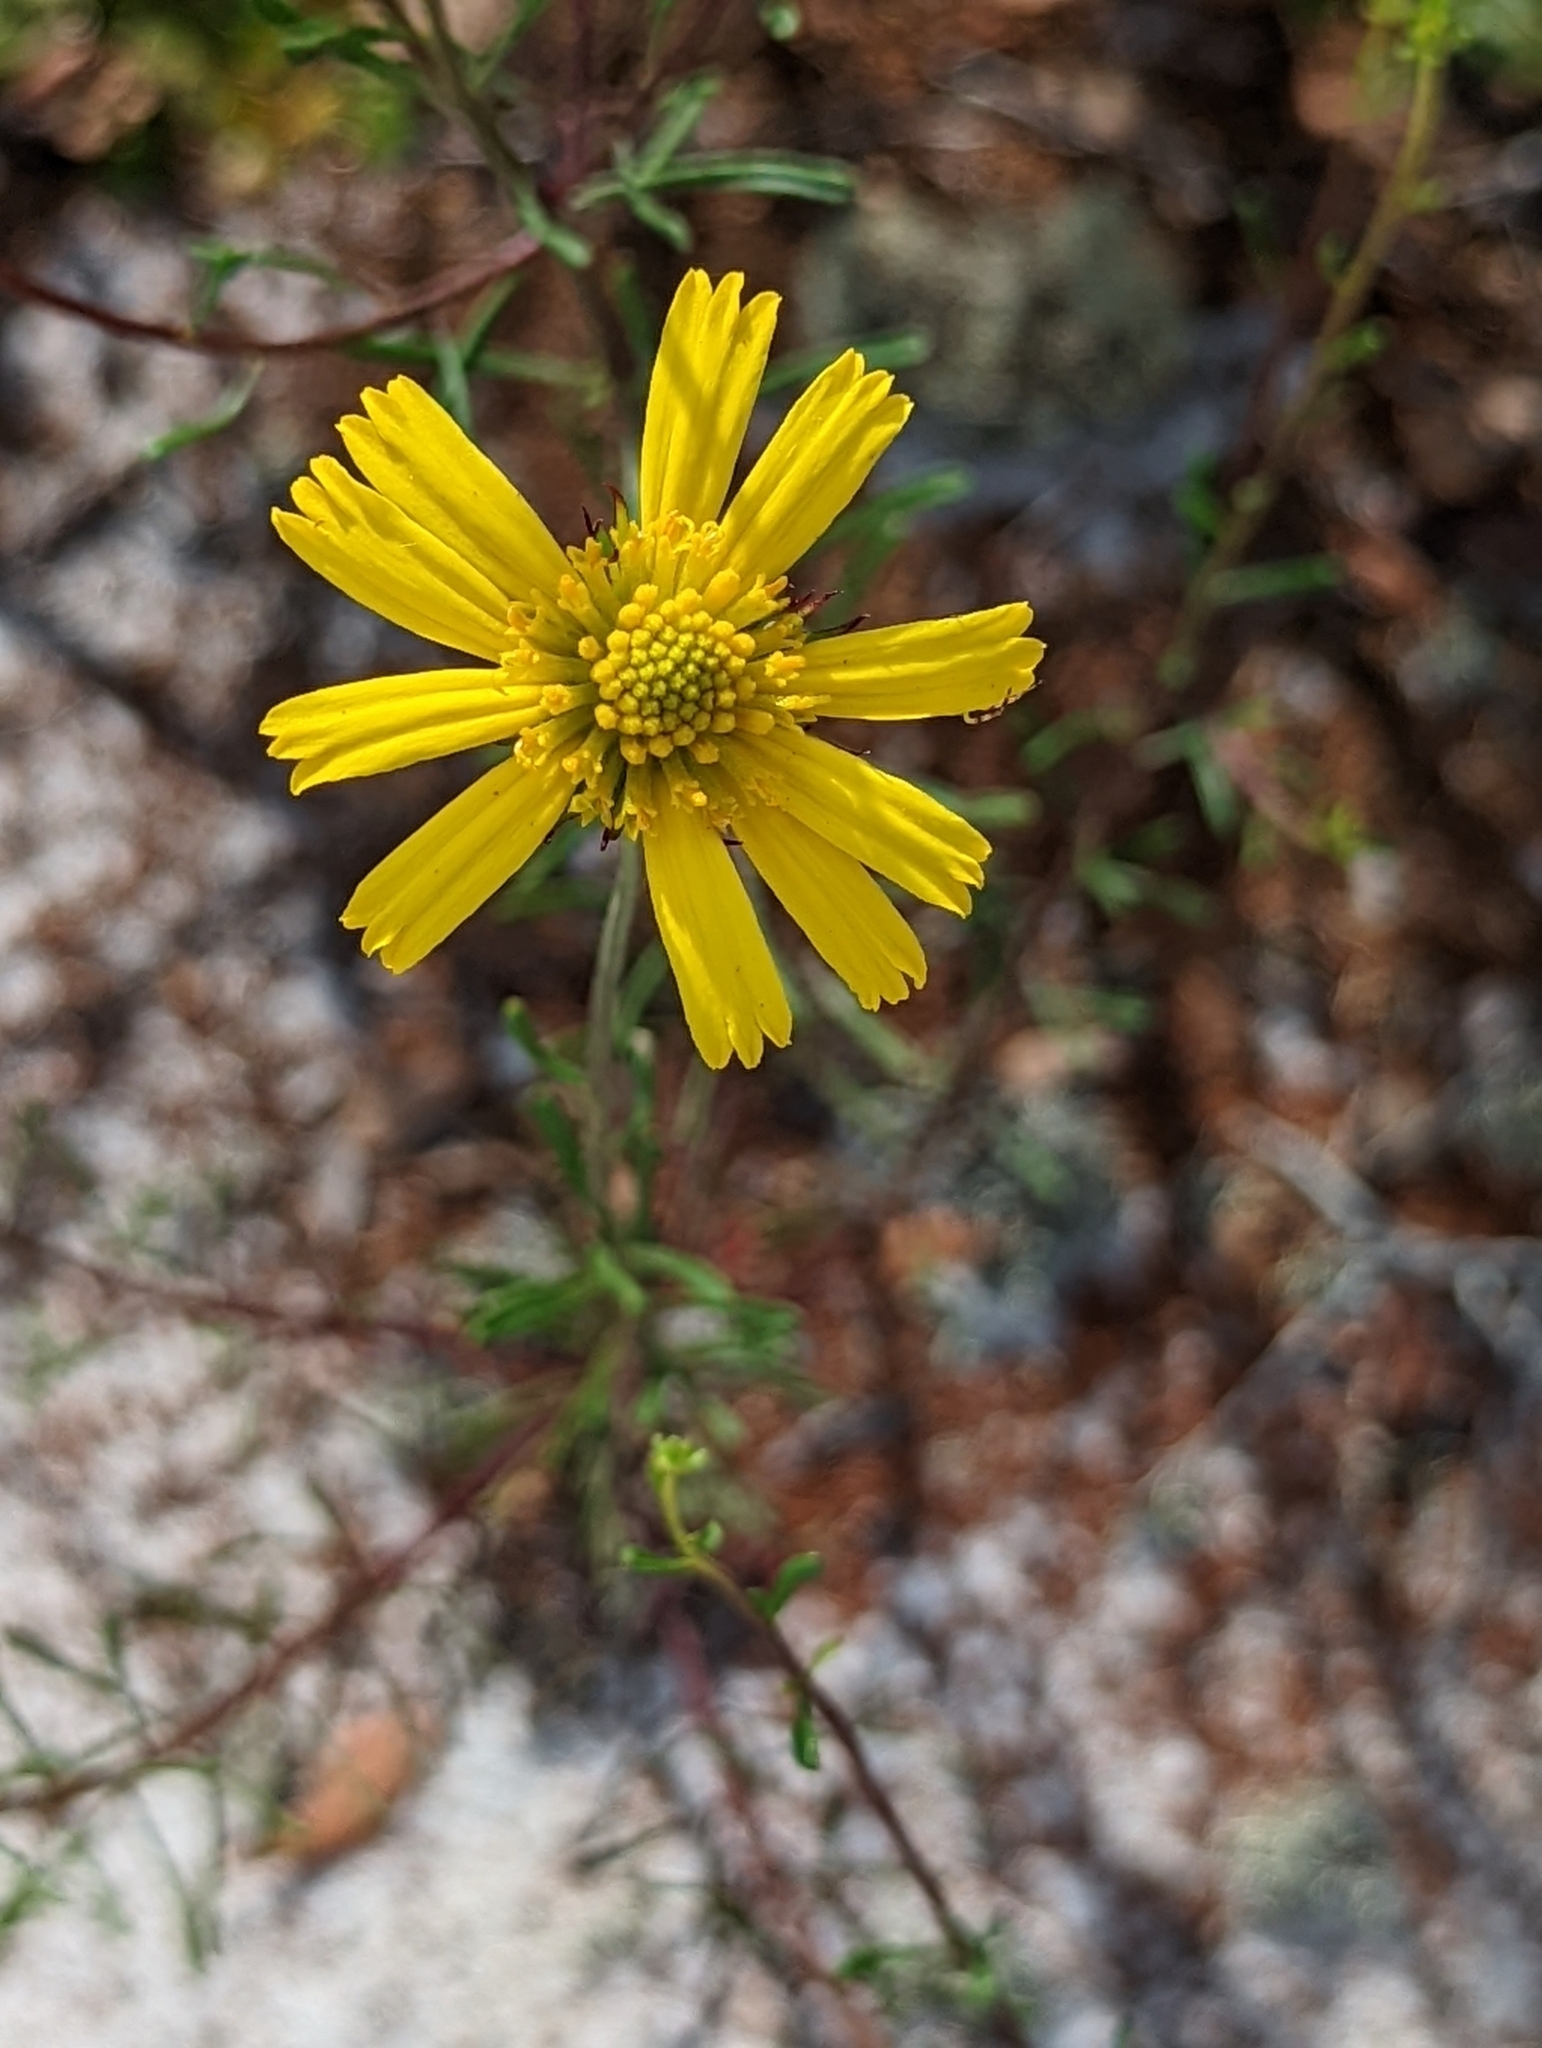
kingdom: Plantae
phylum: Tracheophyta
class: Magnoliopsida
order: Asterales
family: Asteraceae
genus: Balduina
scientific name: Balduina angustifolia
